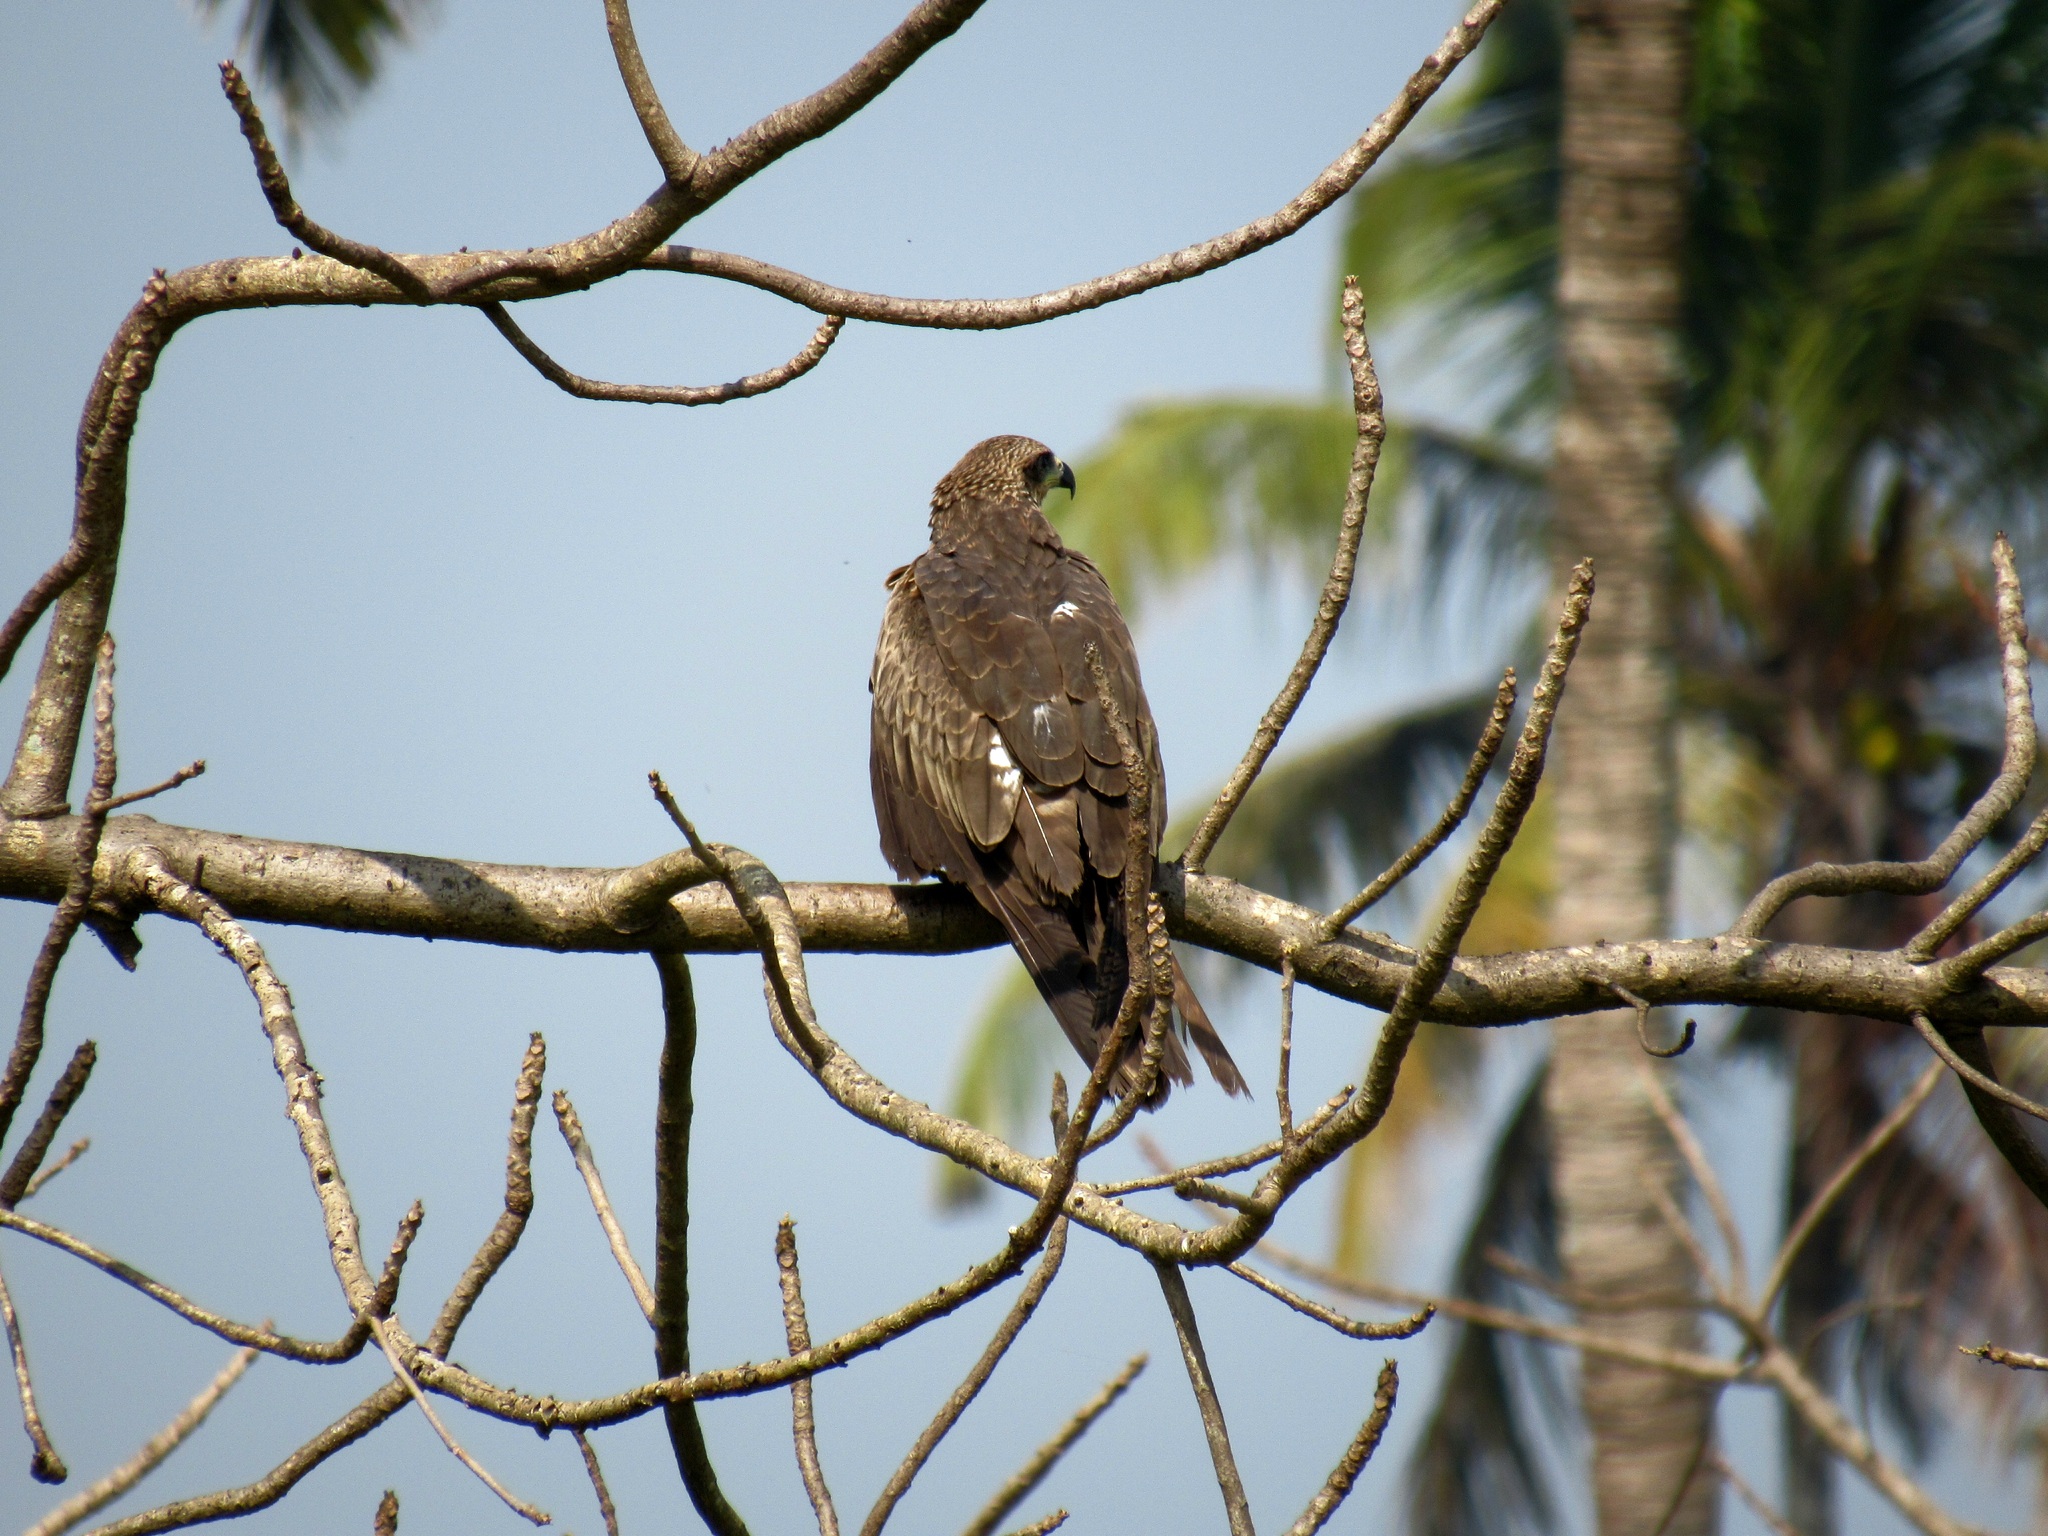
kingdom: Animalia
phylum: Chordata
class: Aves
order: Accipitriformes
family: Accipitridae
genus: Milvus
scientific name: Milvus migrans
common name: Black kite
